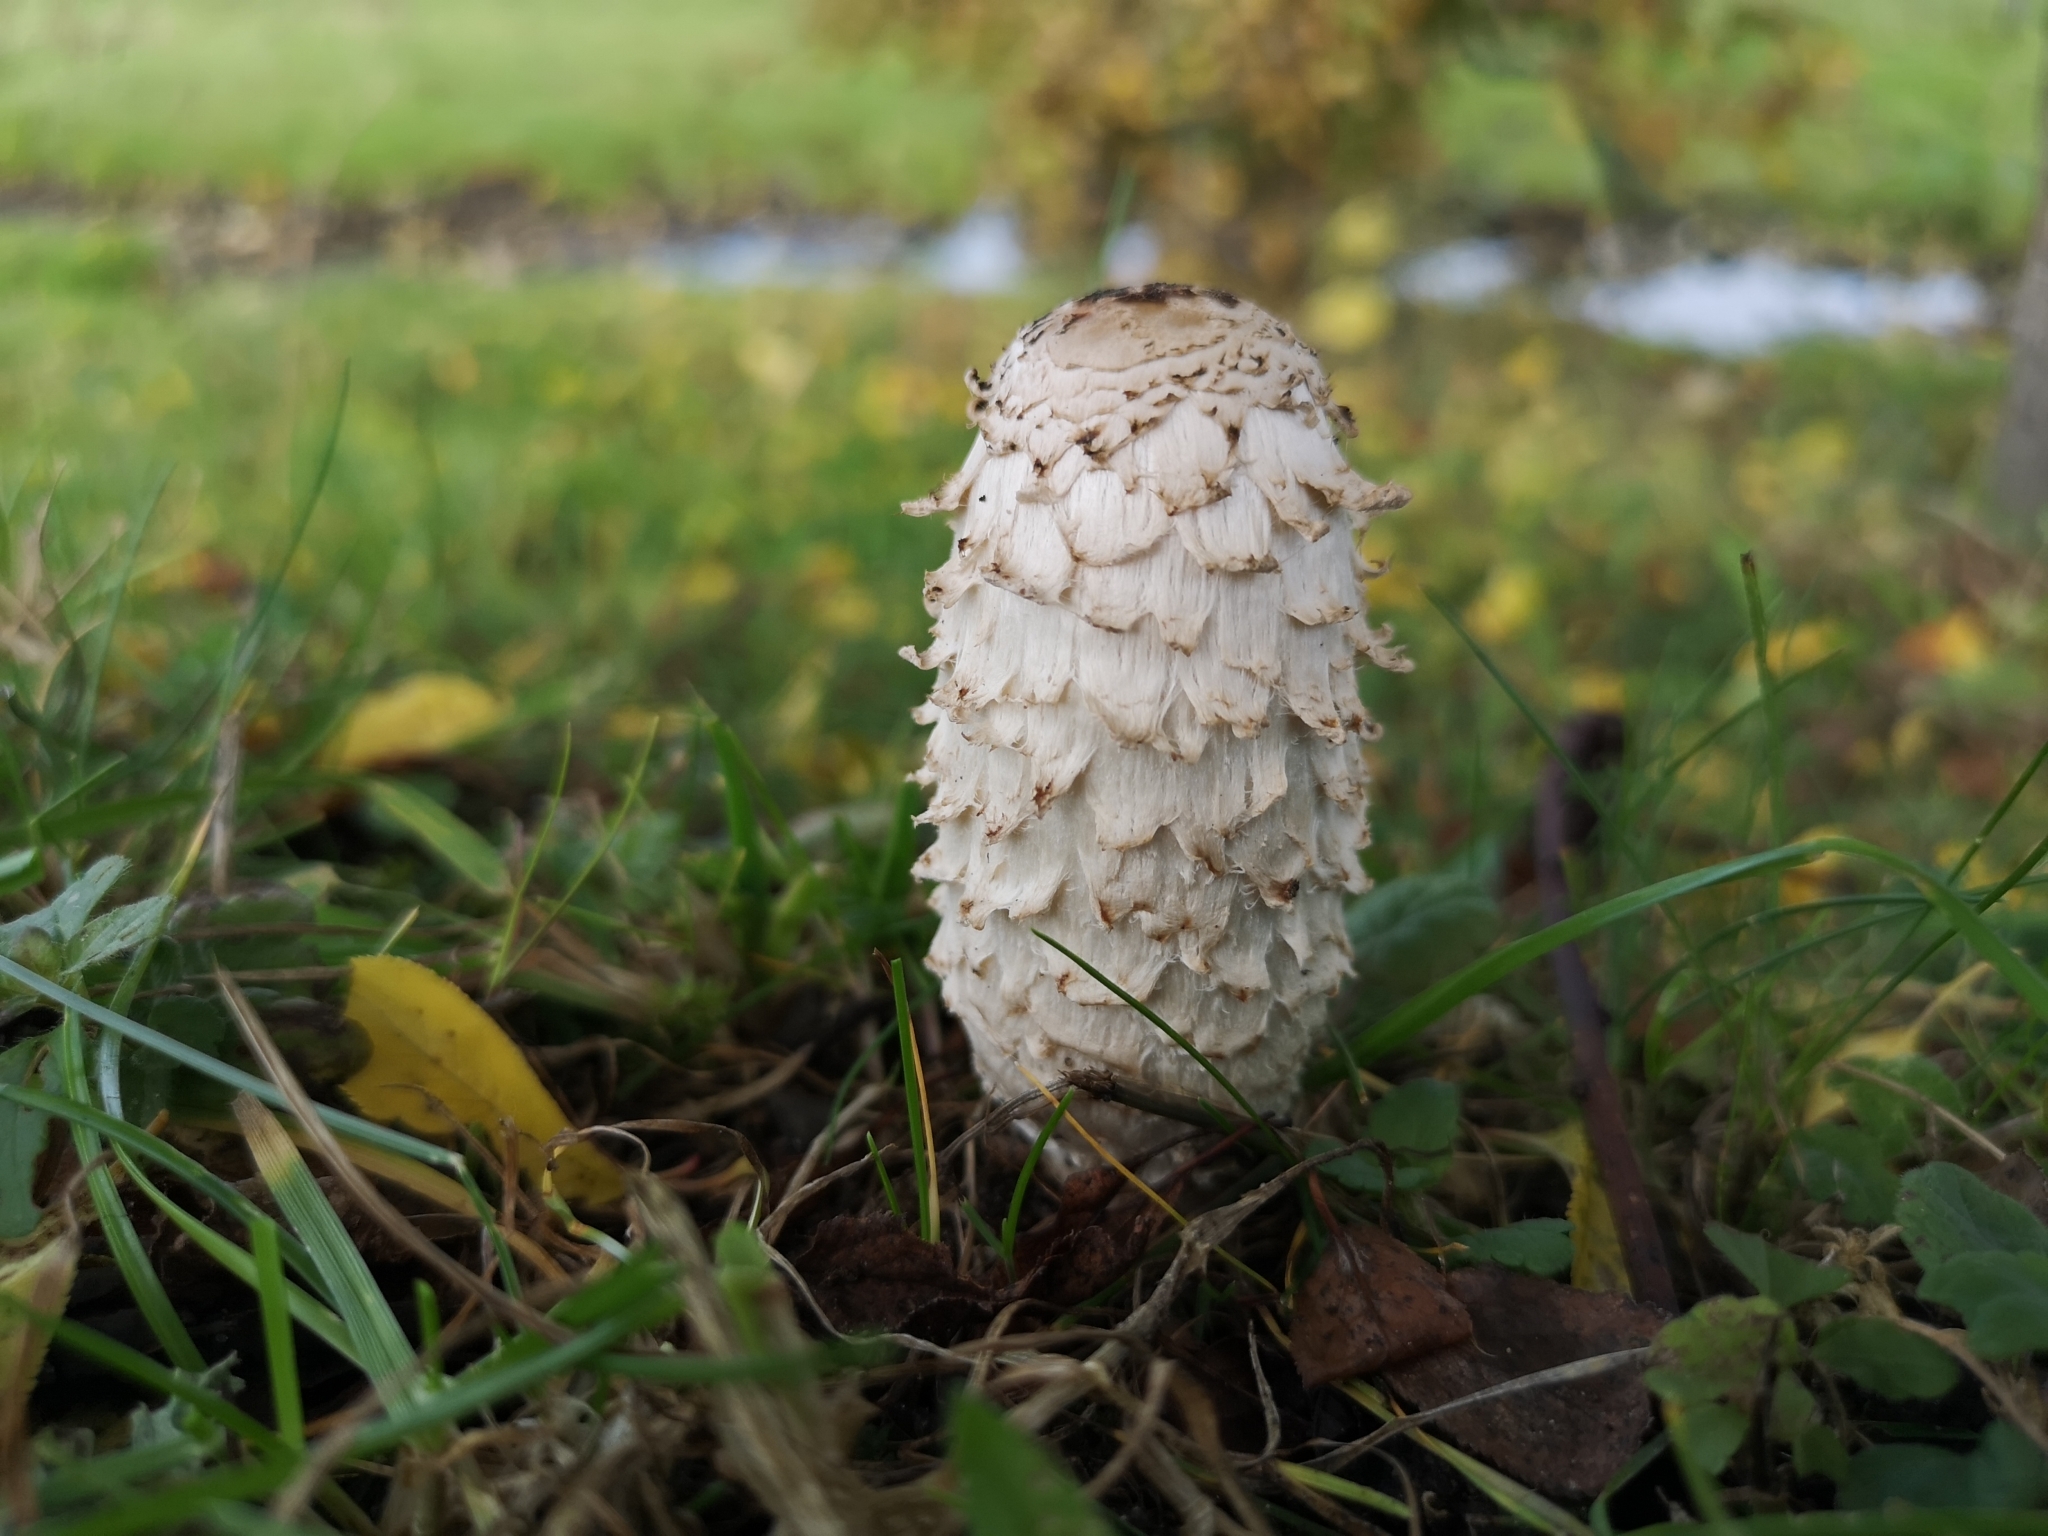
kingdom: Fungi
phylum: Basidiomycota
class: Agaricomycetes
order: Agaricales
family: Agaricaceae
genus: Coprinus
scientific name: Coprinus comatus
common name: Lawyer's wig
